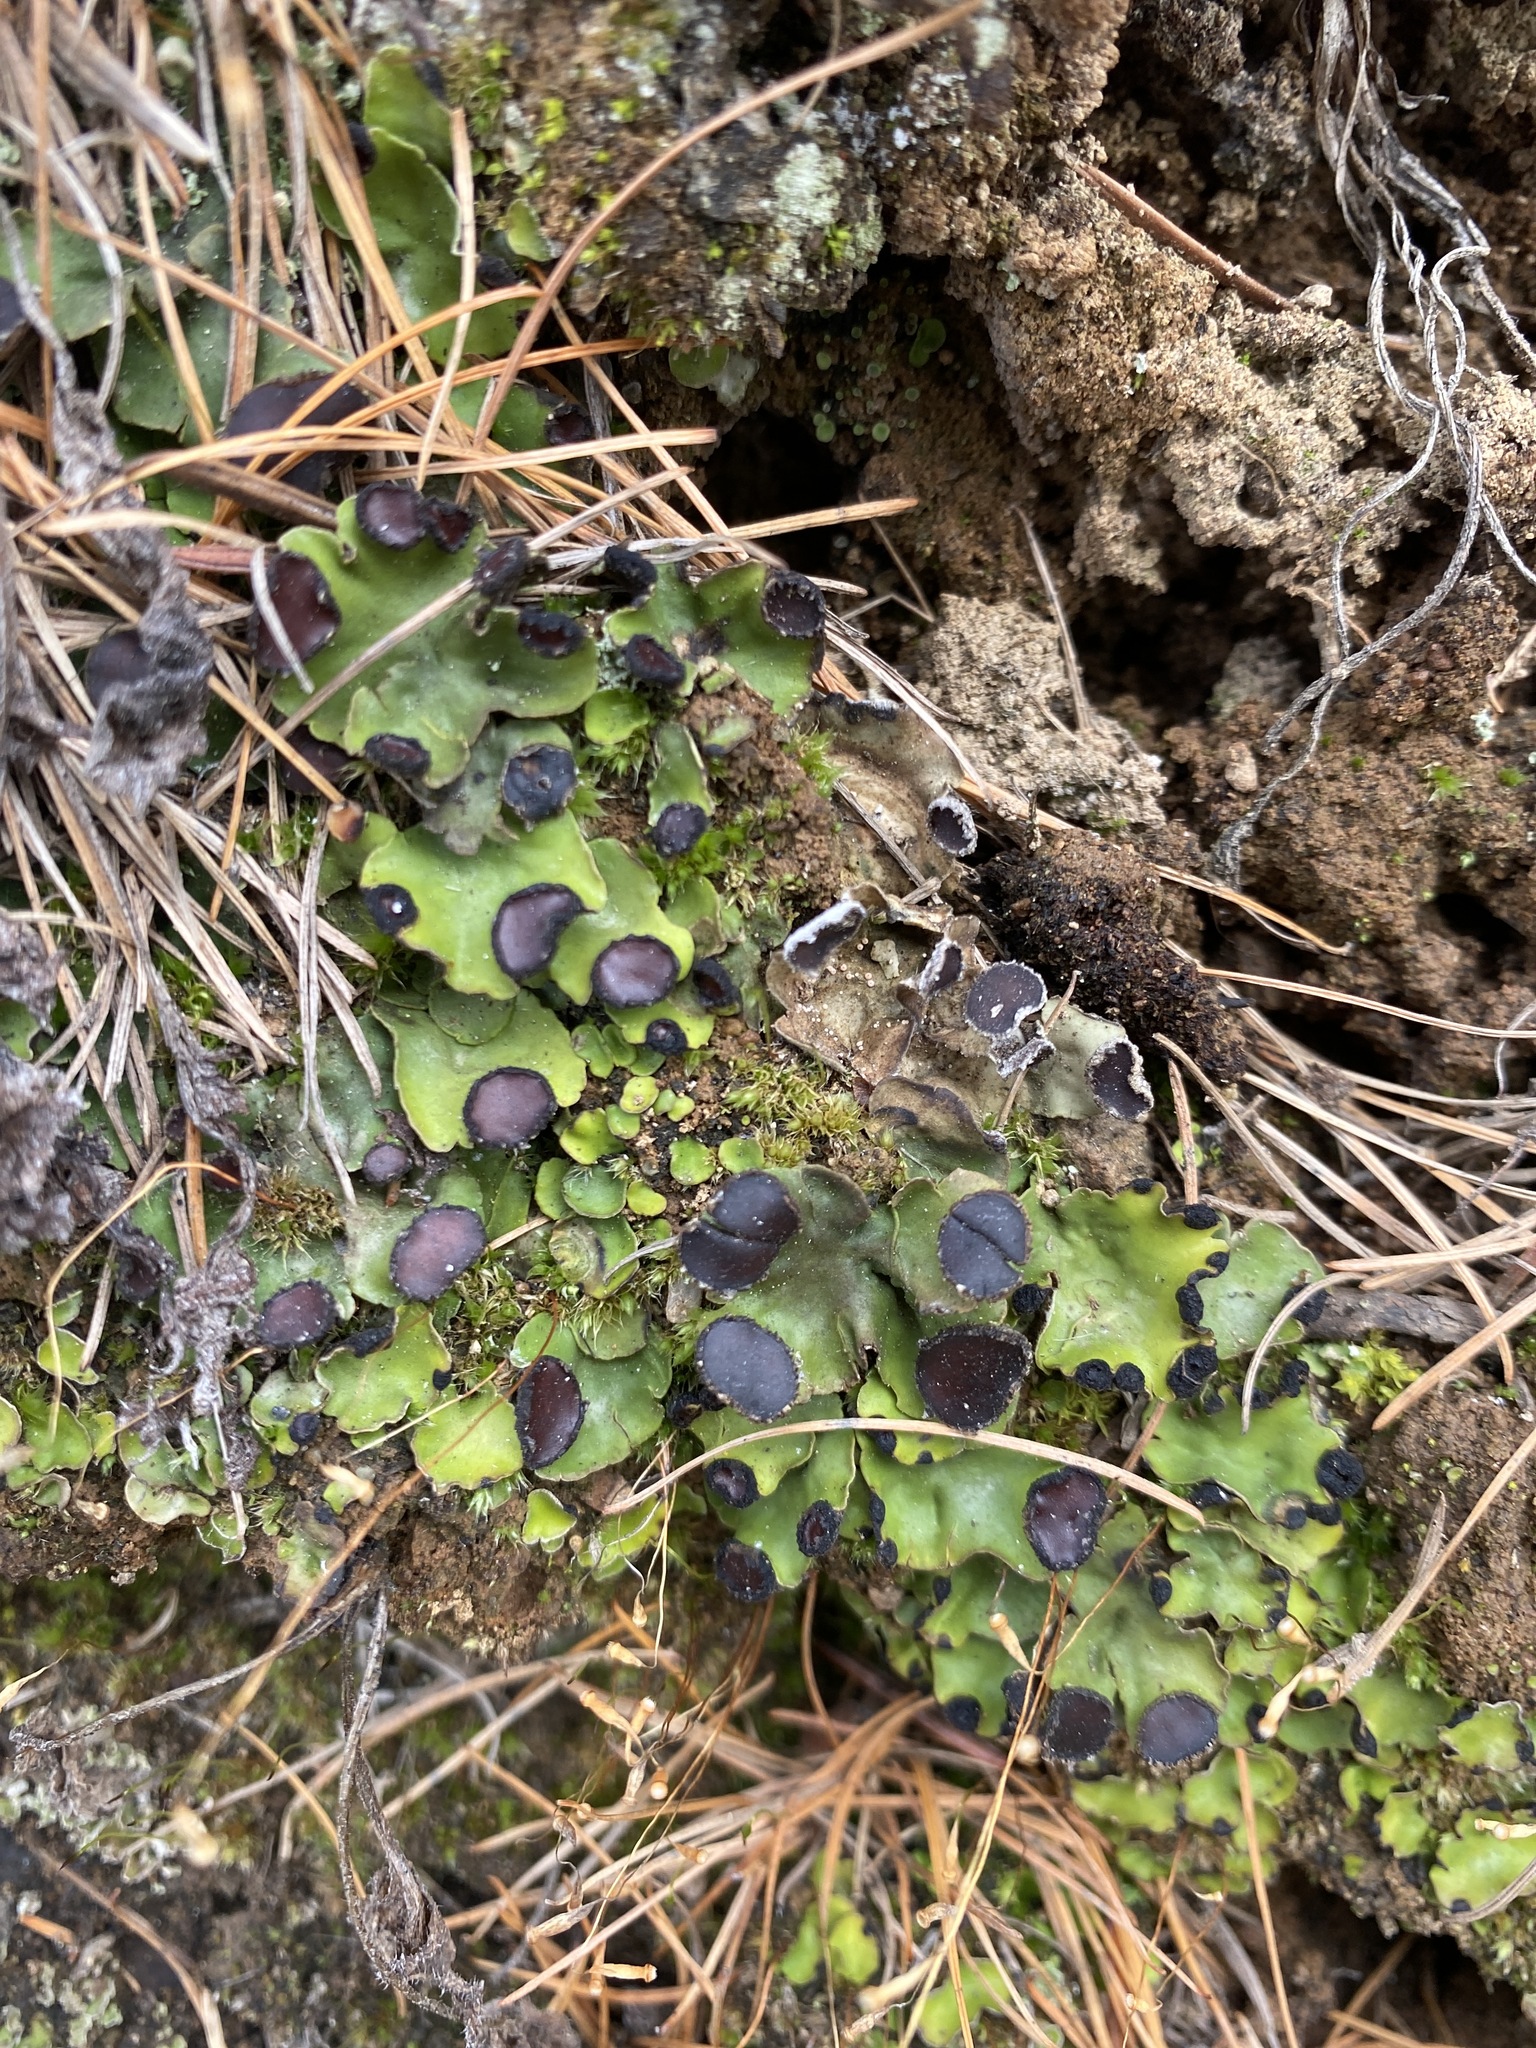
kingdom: Fungi
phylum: Ascomycota
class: Lecanoromycetes
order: Peltigerales
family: Peltigeraceae
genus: Peltigera
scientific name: Peltigera venosa
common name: Pixie gowns lichen
